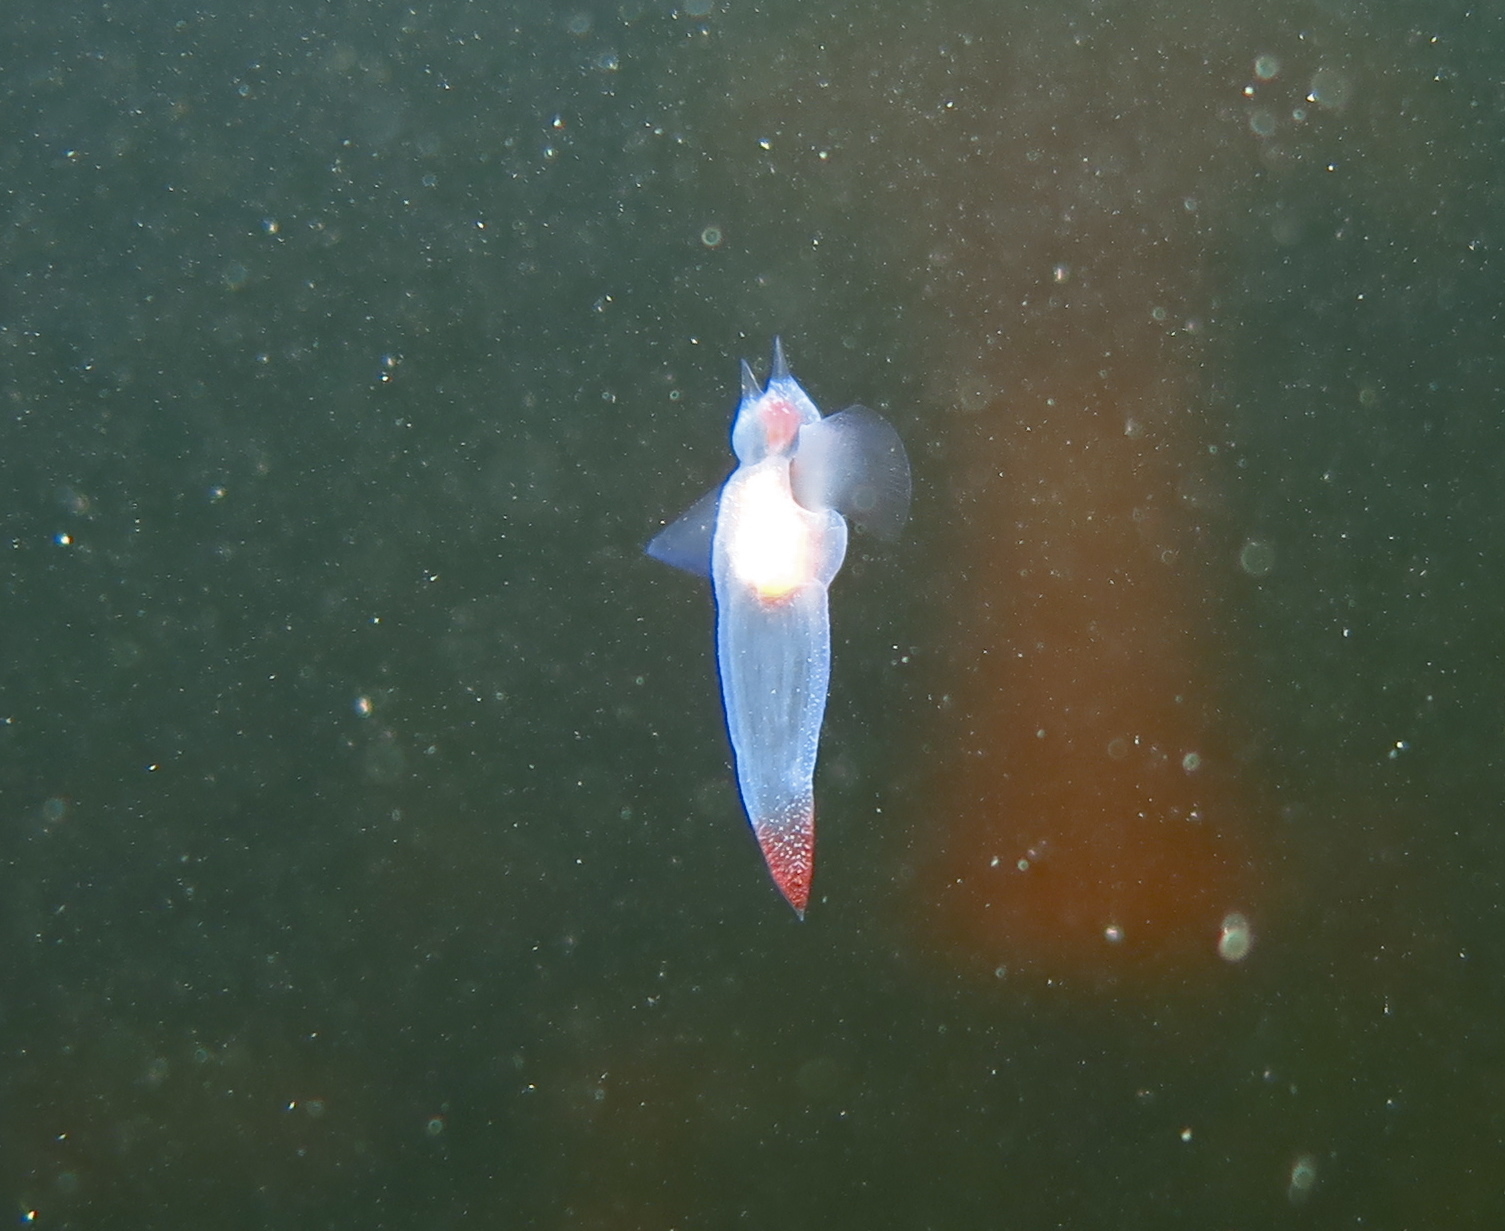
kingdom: Animalia
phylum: Mollusca
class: Gastropoda
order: Pteropoda
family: Clionidae
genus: Clione
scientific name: Clione limacina
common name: Common clione
